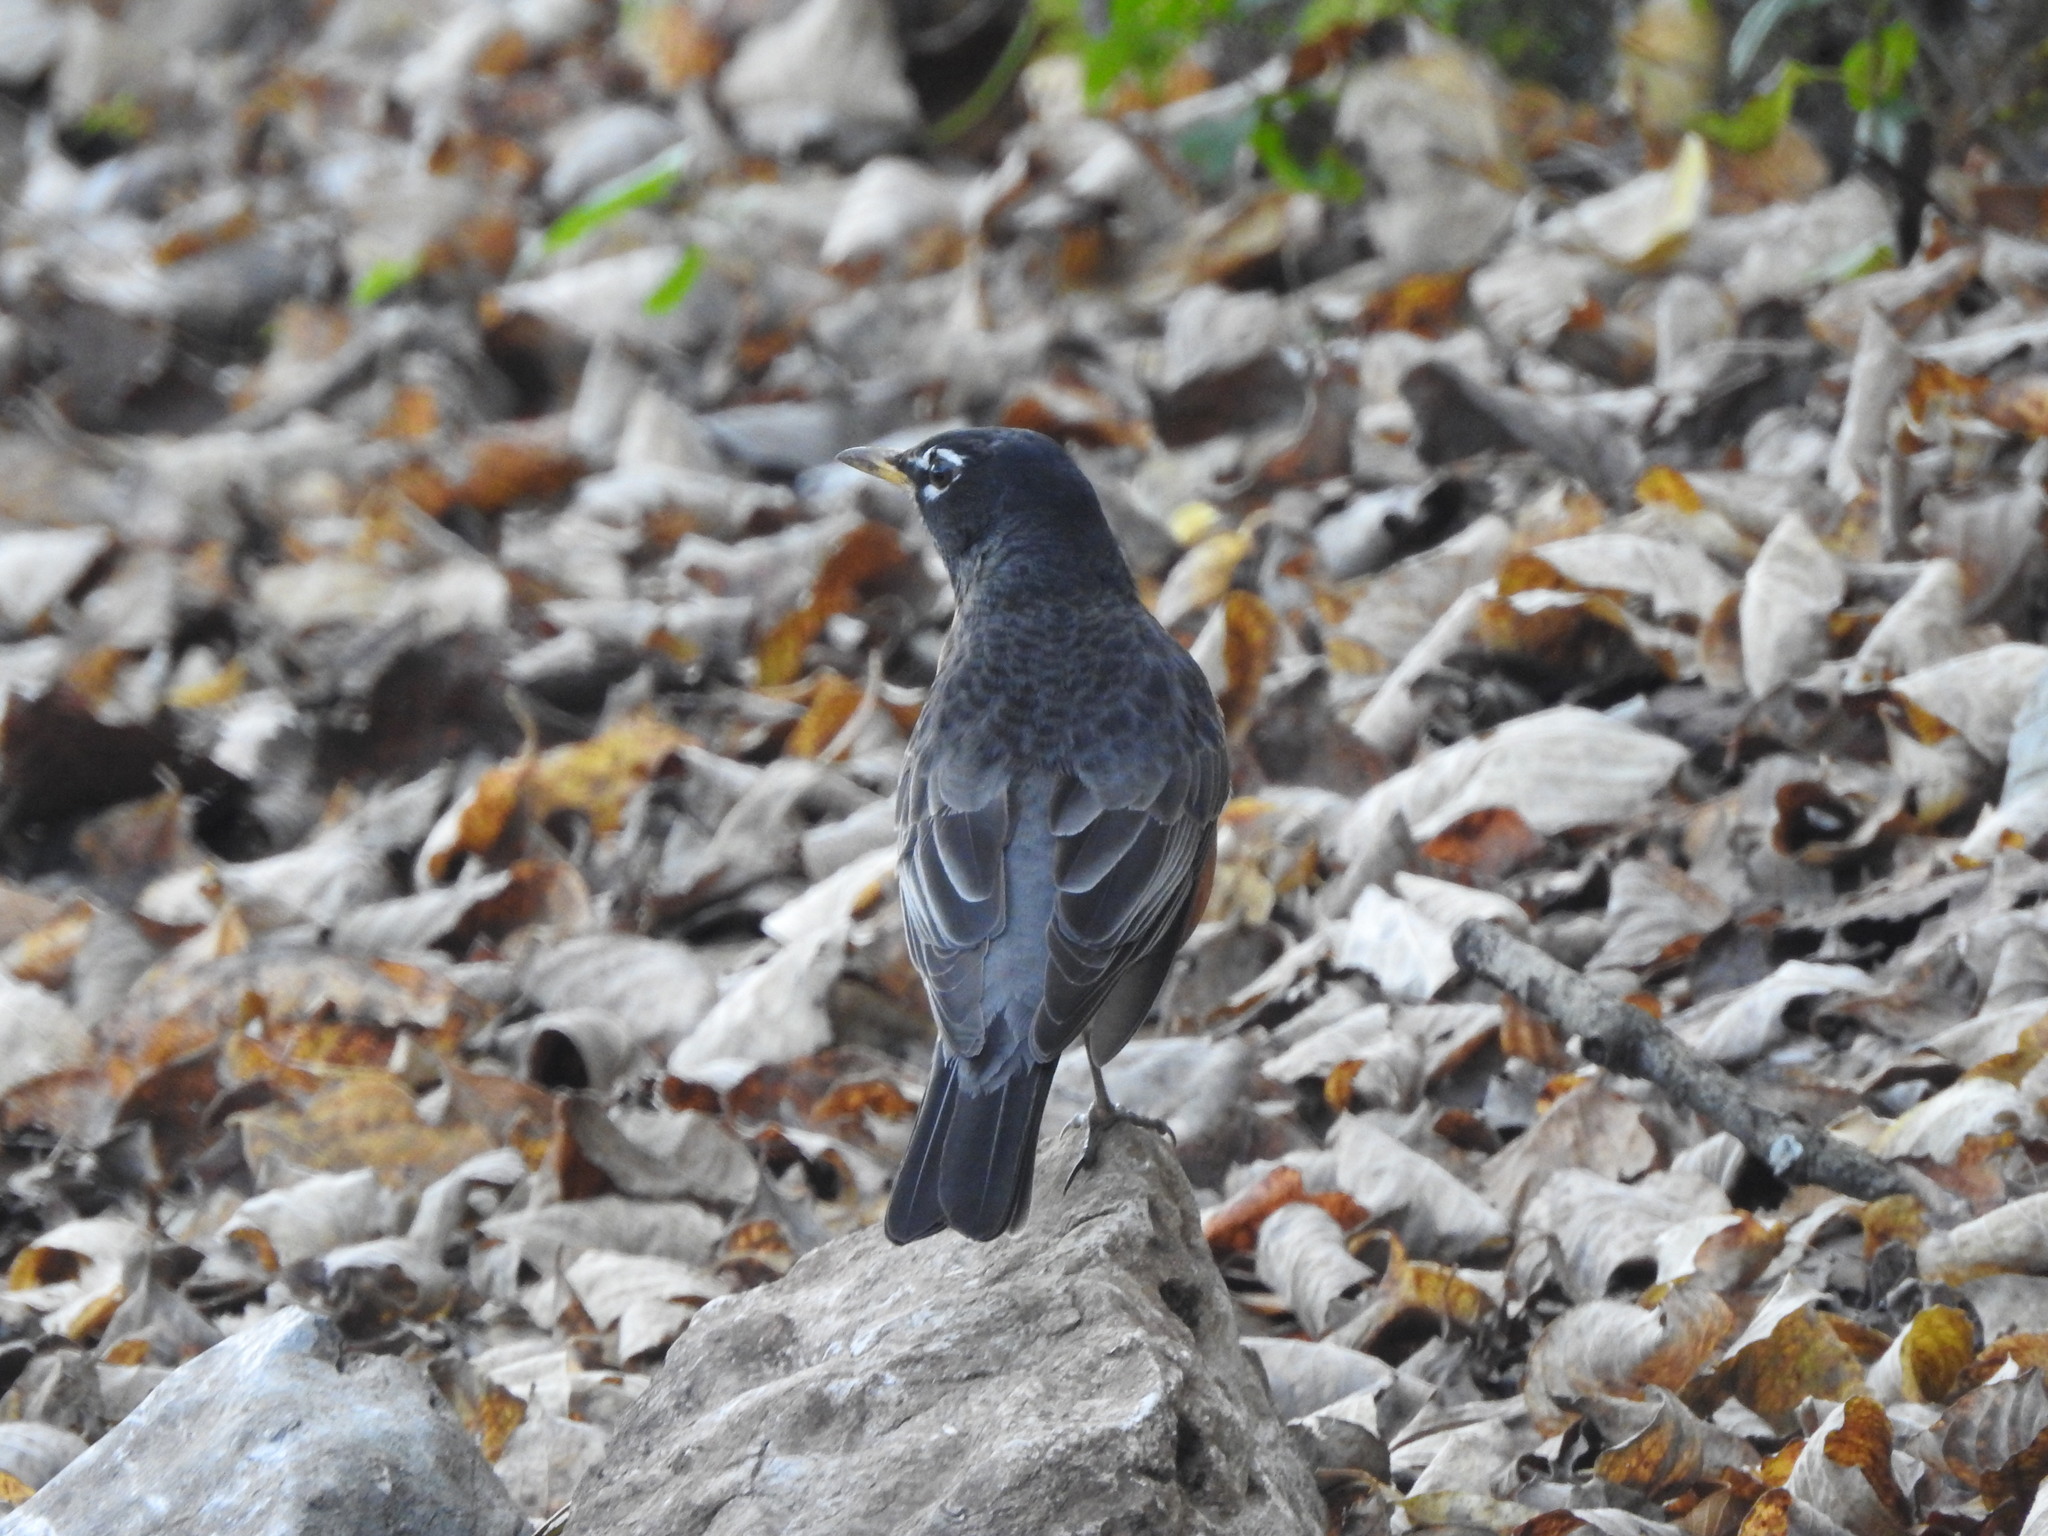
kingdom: Animalia
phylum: Chordata
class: Aves
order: Passeriformes
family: Turdidae
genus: Turdus
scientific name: Turdus migratorius
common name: American robin
